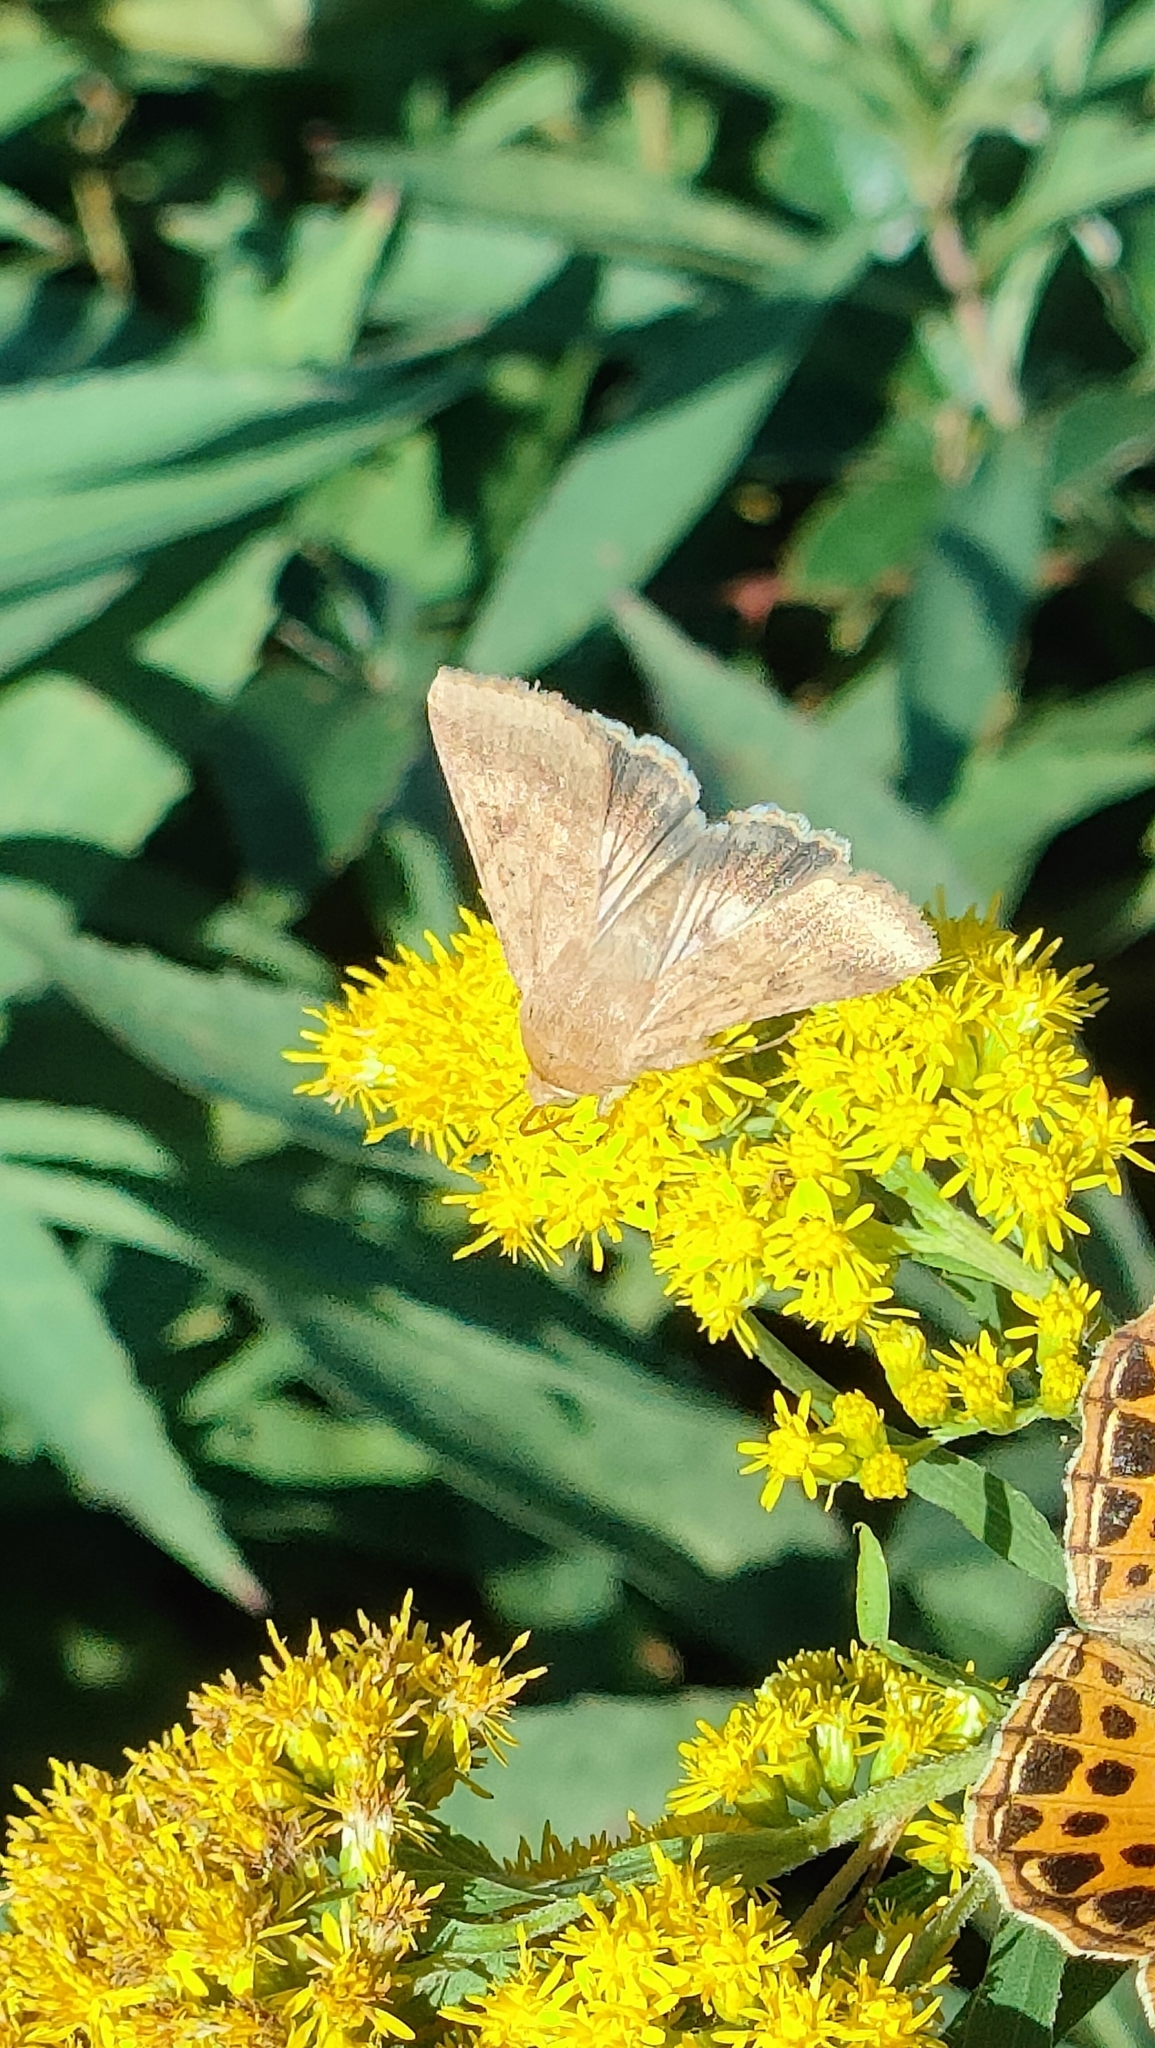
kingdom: Animalia
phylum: Arthropoda
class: Insecta
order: Lepidoptera
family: Noctuidae
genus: Helicoverpa
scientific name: Helicoverpa armigera
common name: Cotton bollworm
